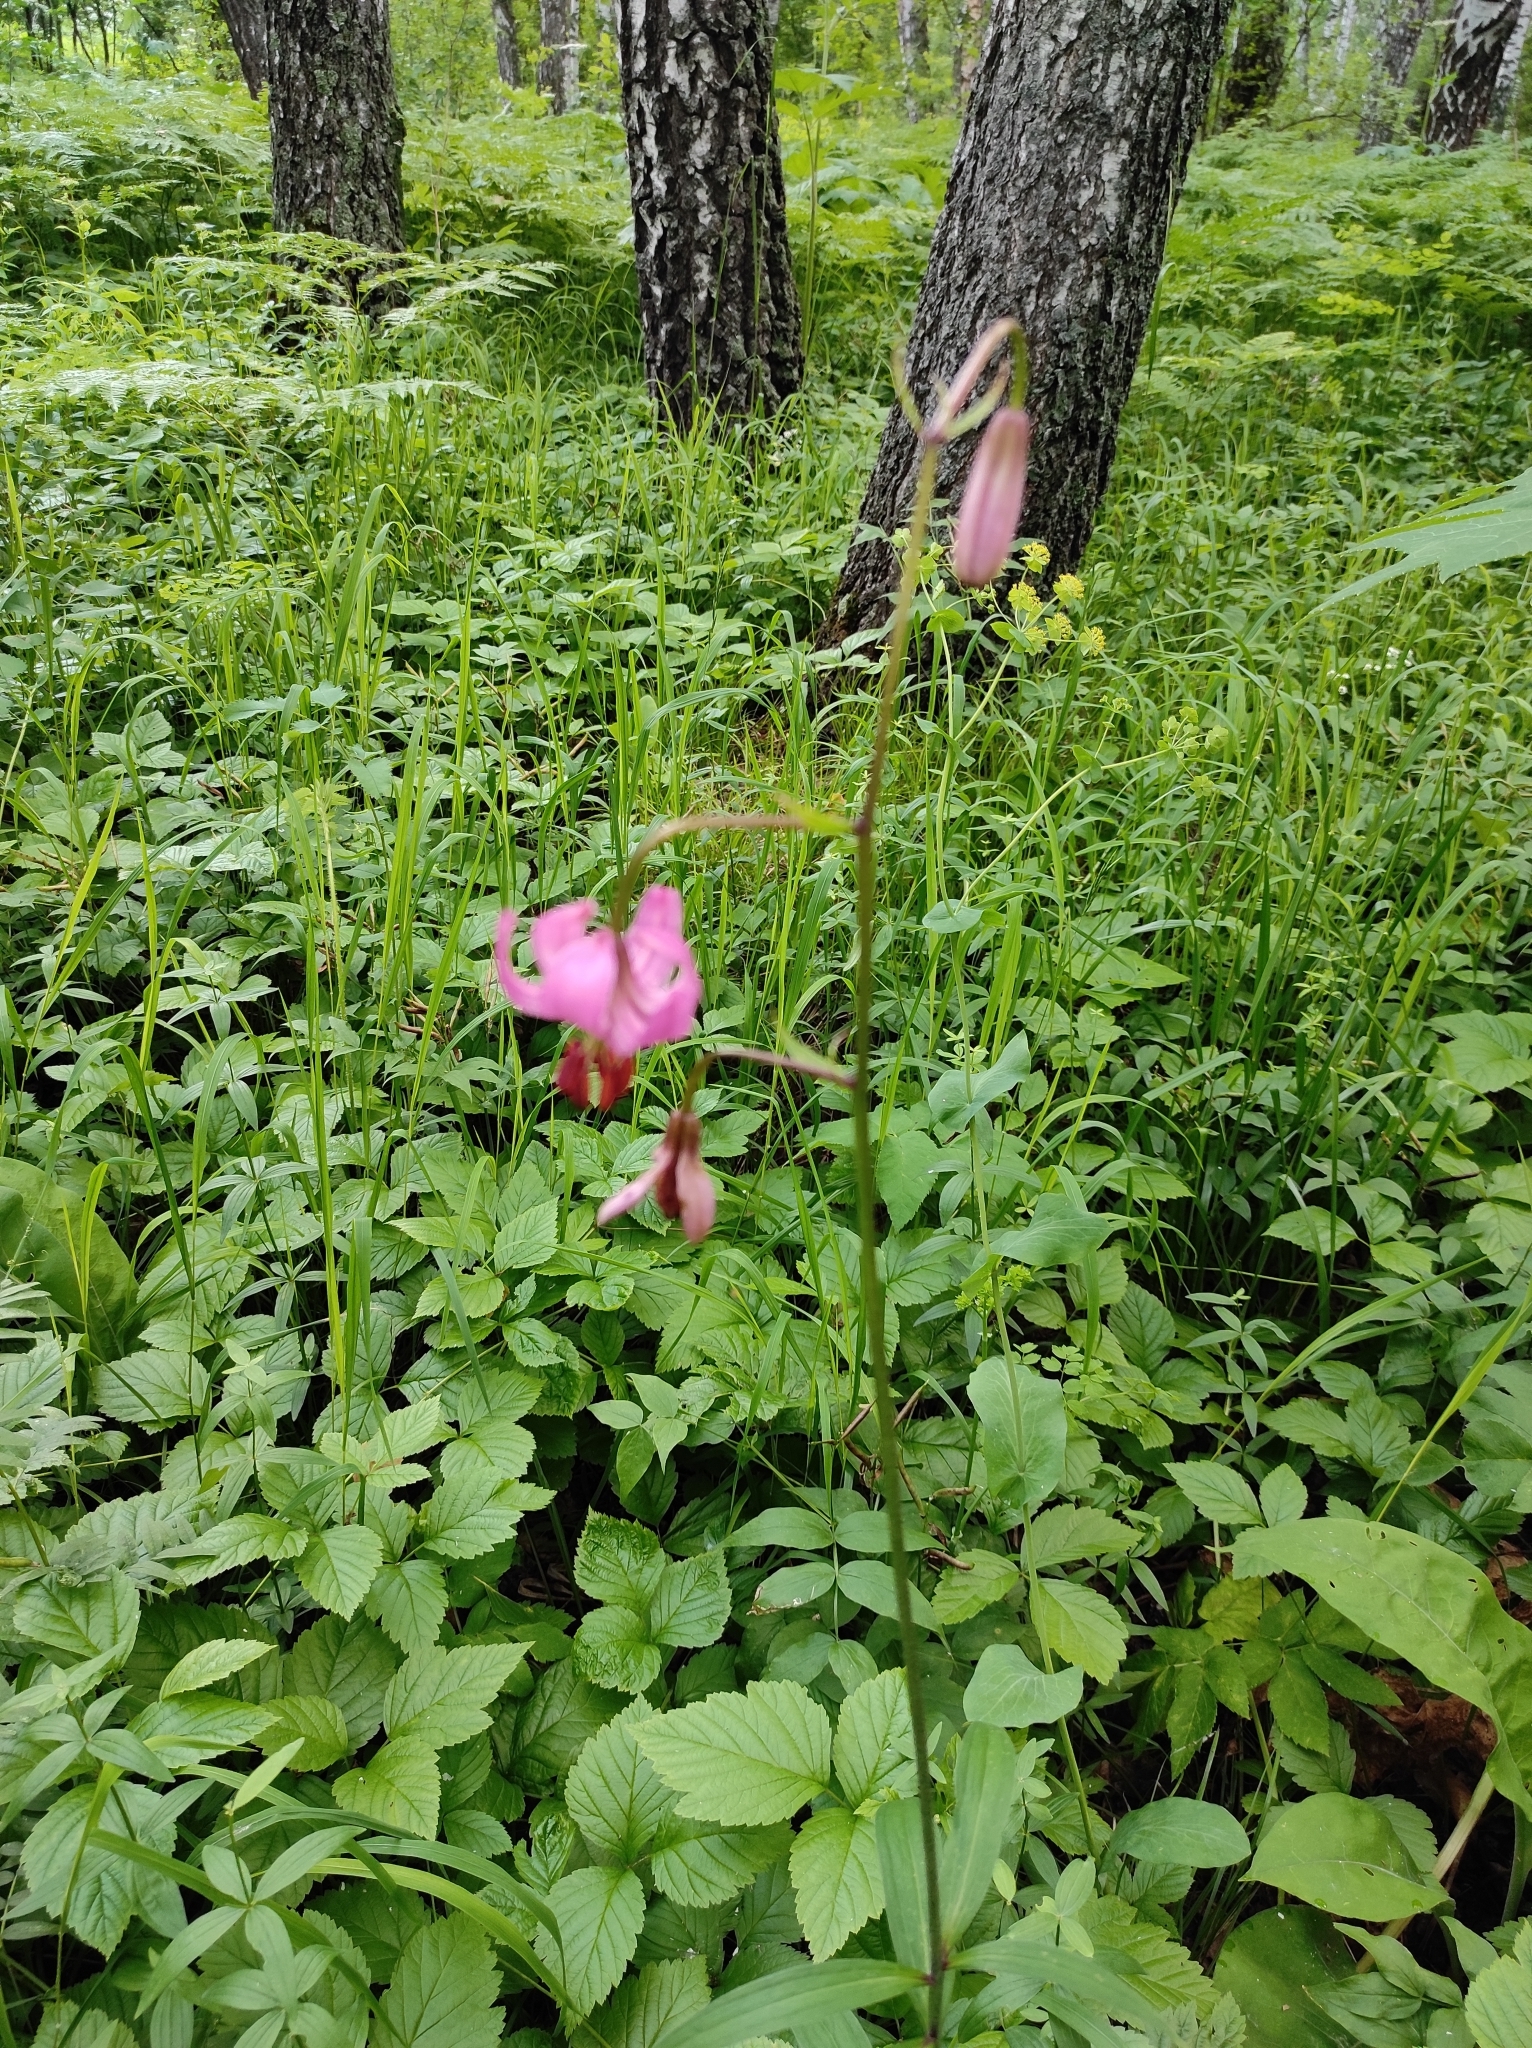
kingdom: Plantae
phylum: Tracheophyta
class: Liliopsida
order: Liliales
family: Liliaceae
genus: Lilium
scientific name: Lilium martagon
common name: Martagon lily
